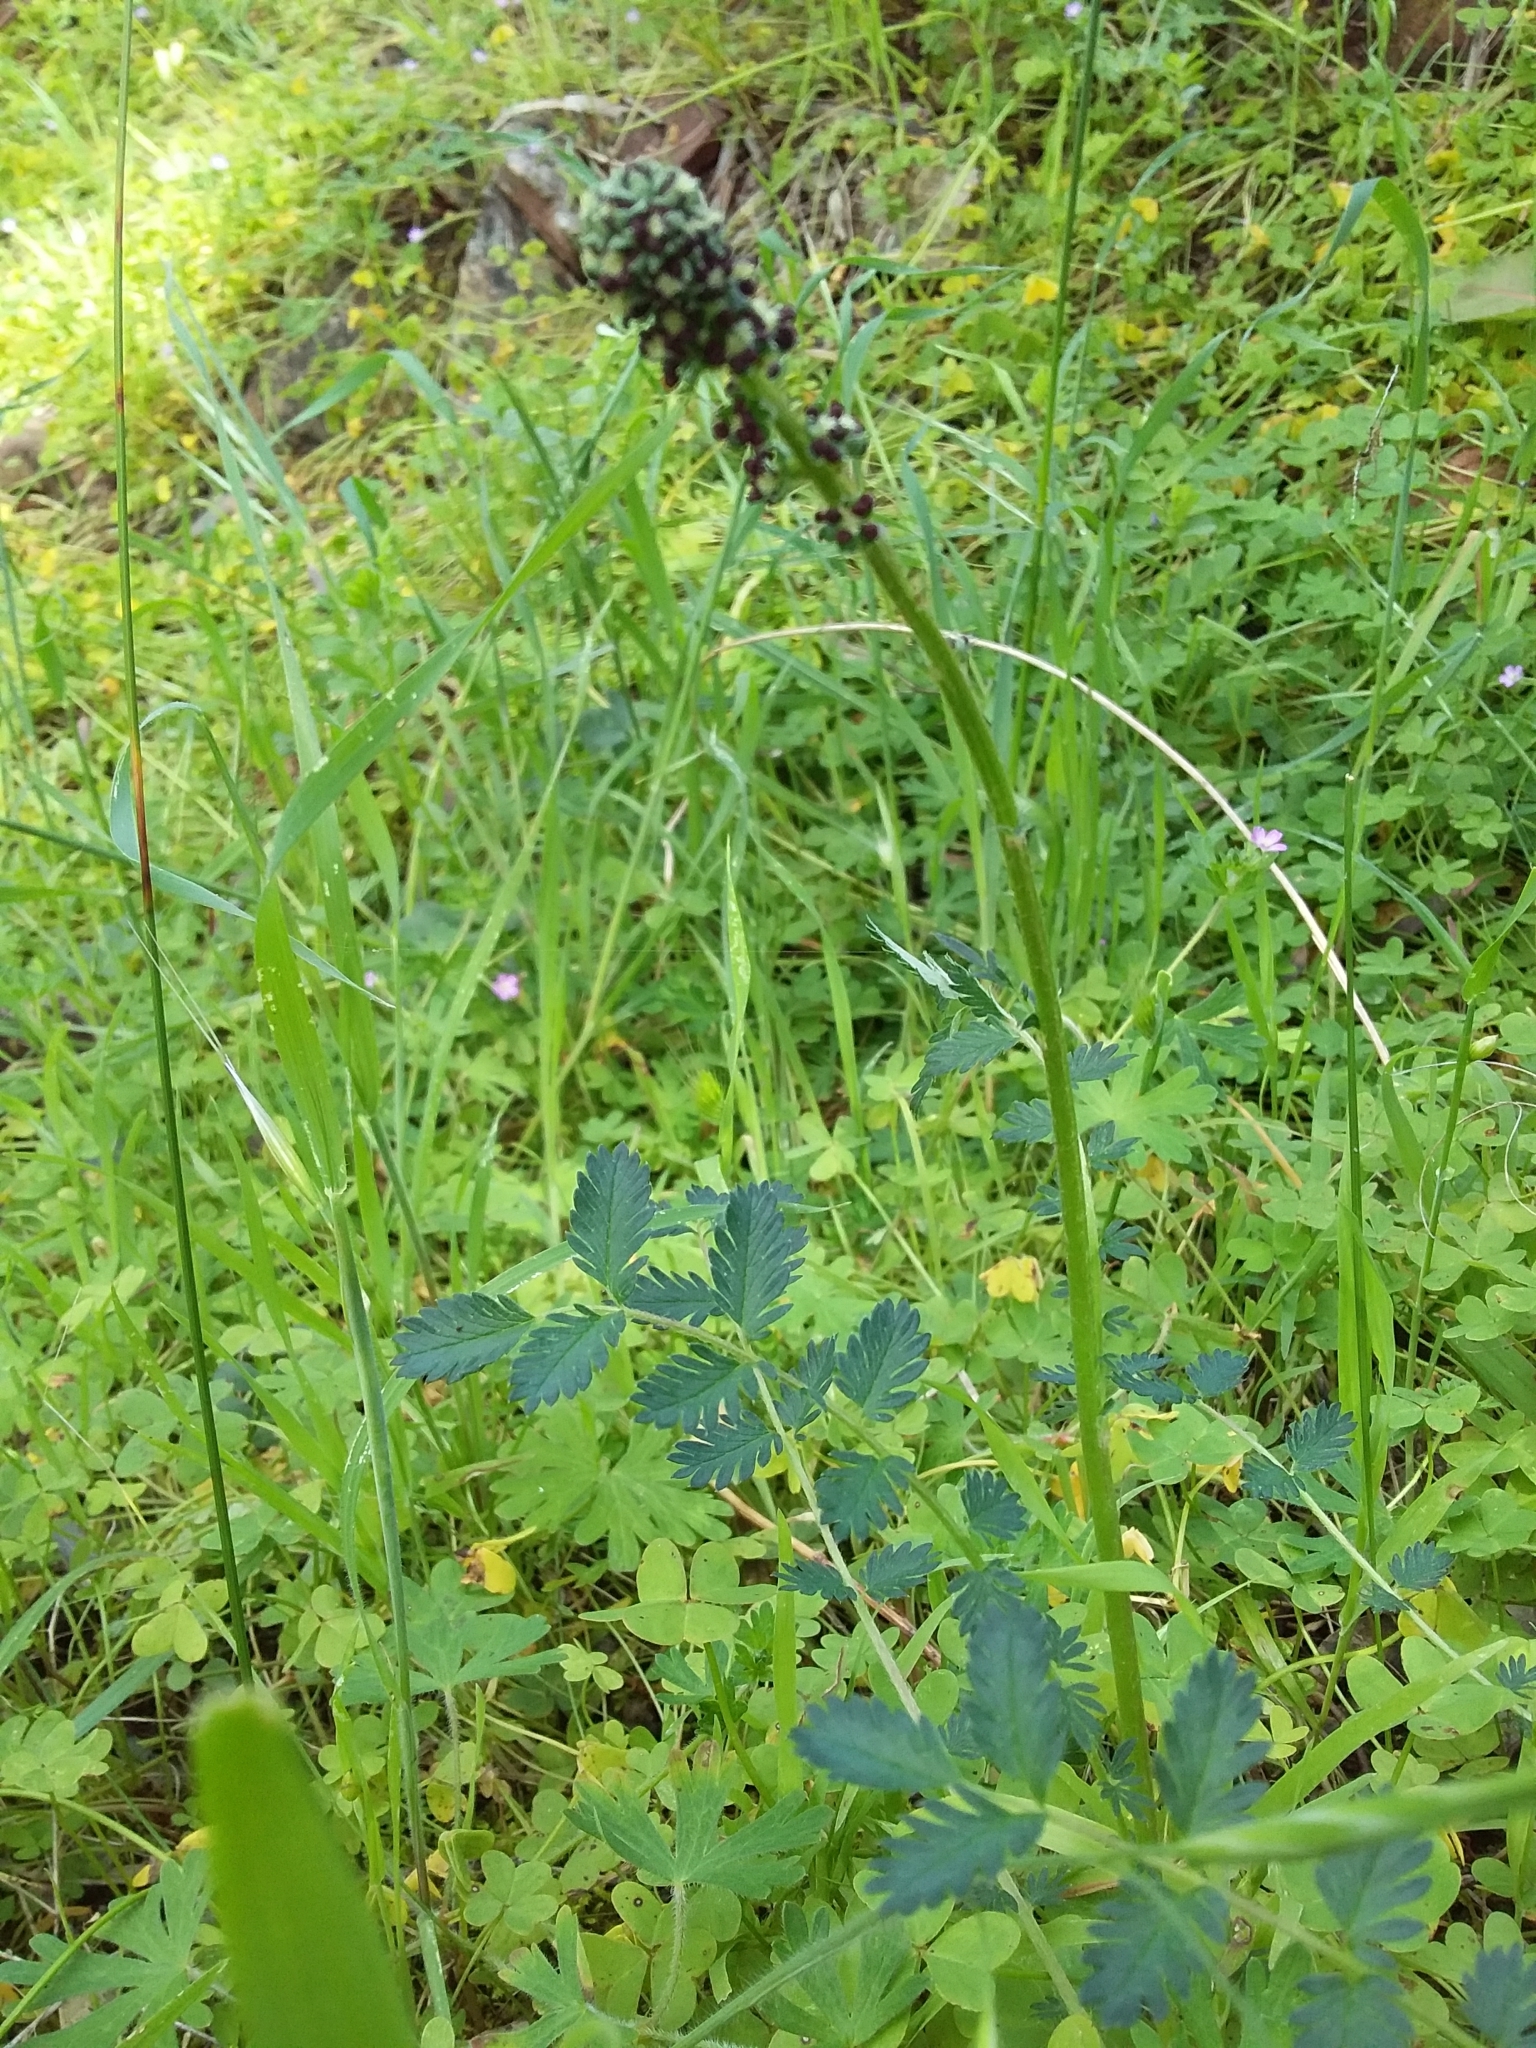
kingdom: Plantae
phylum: Tracheophyta
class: Magnoliopsida
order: Rosales
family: Rosaceae
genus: Acaena
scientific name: Acaena echinata
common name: Sheepbur
